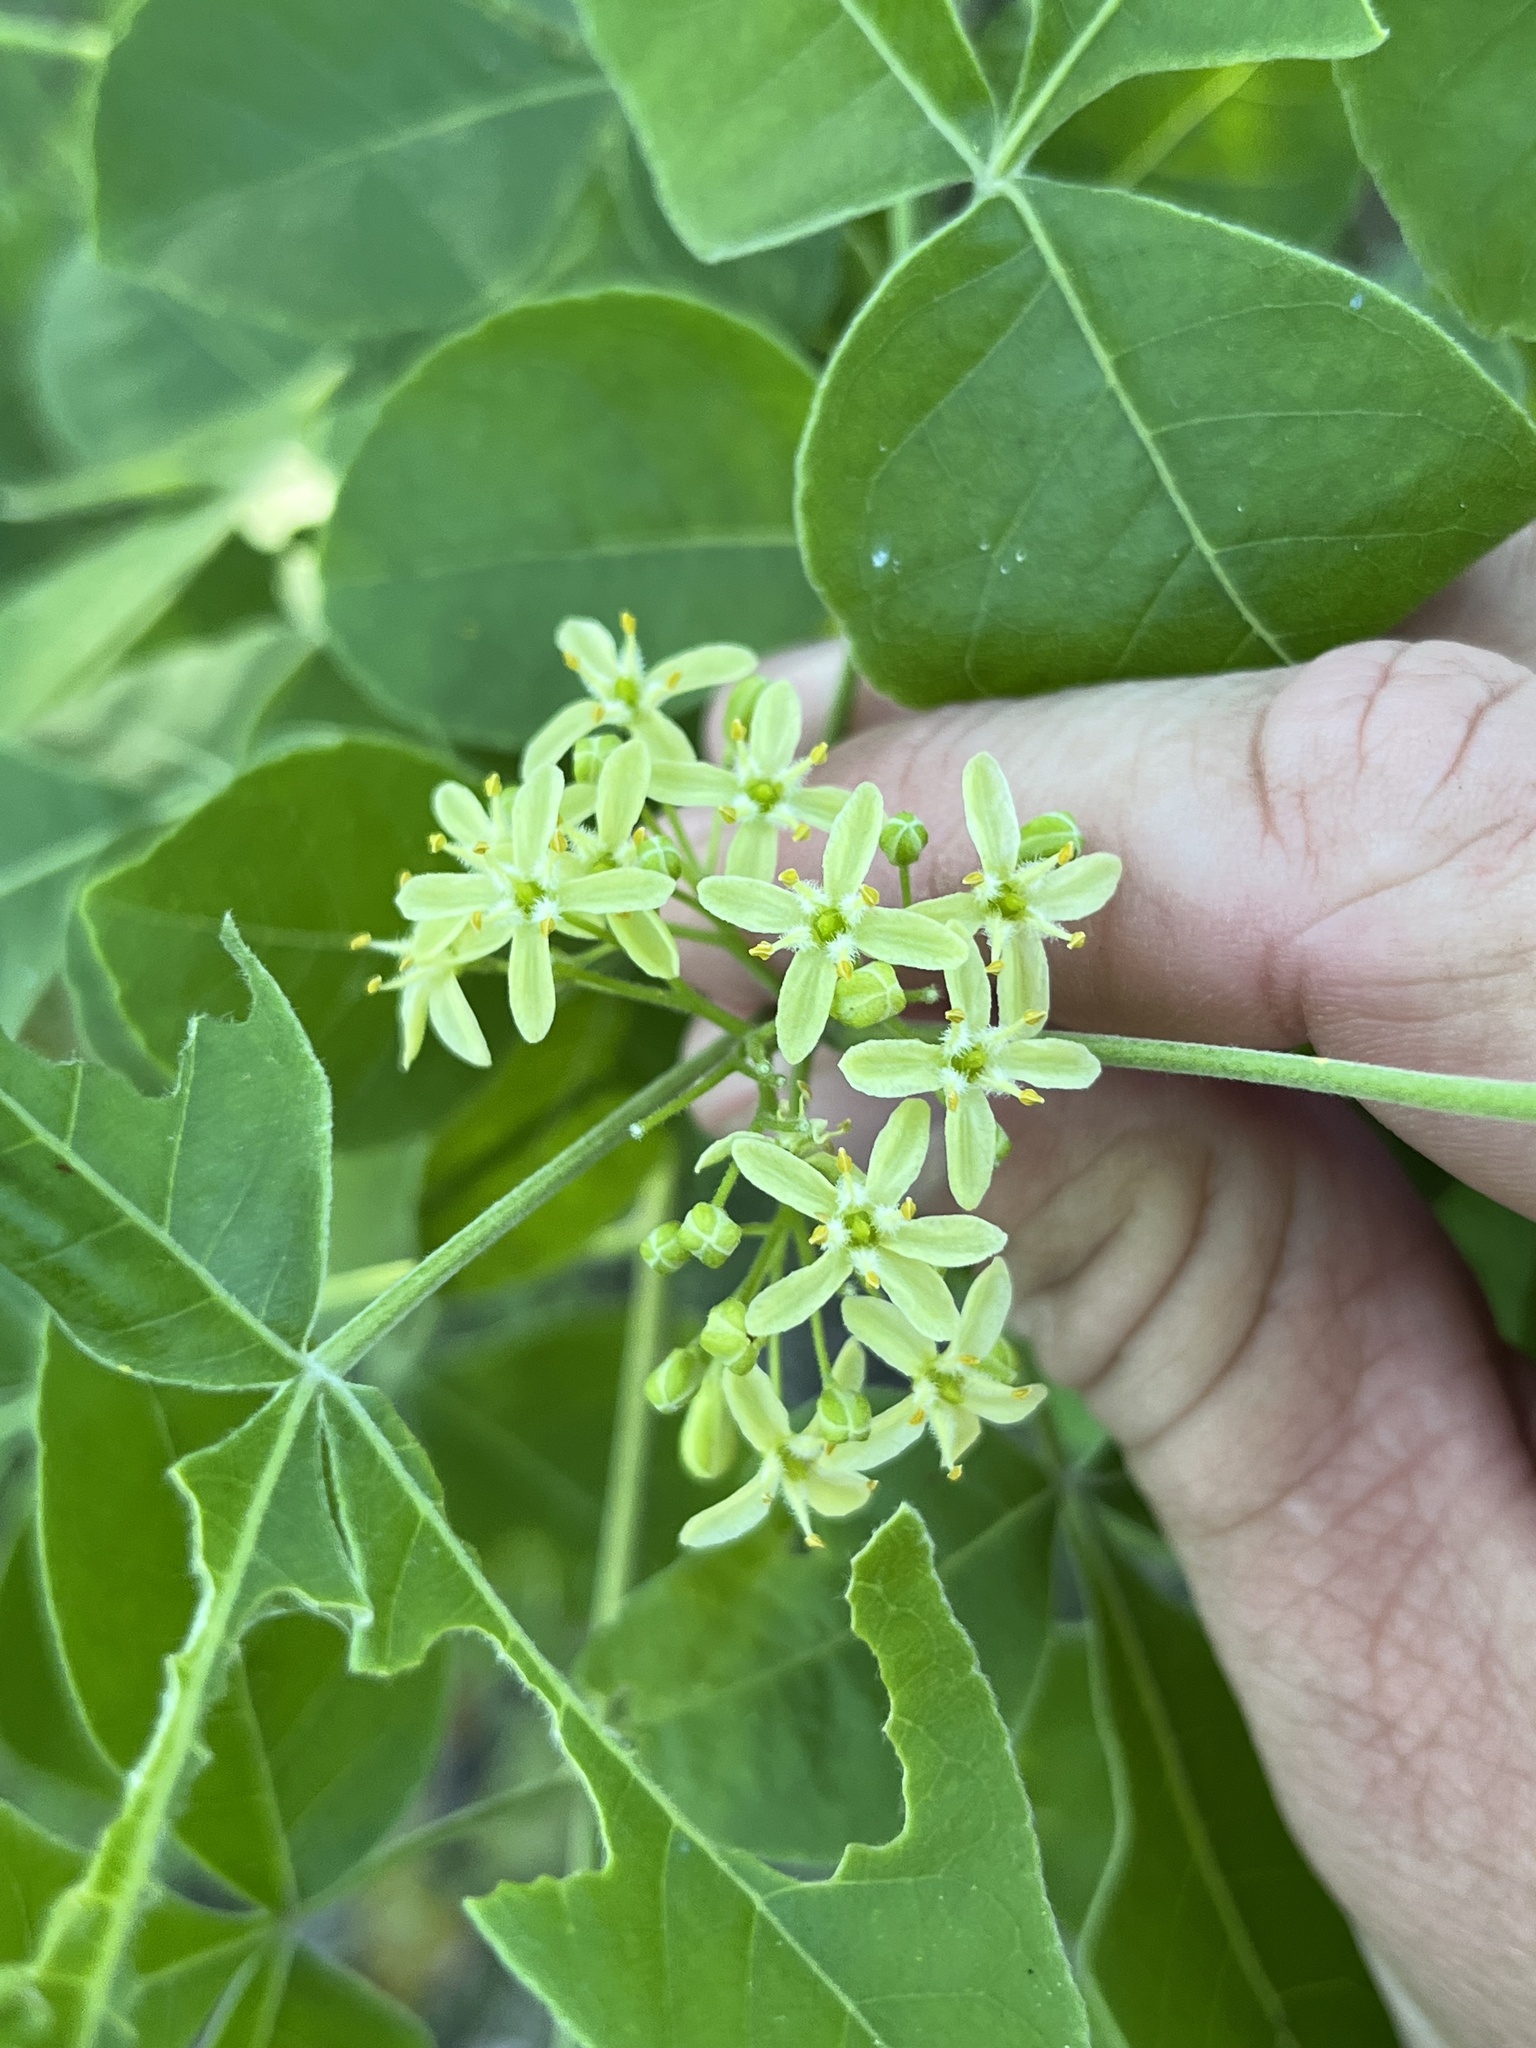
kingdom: Plantae
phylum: Tracheophyta
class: Magnoliopsida
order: Sapindales
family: Rutaceae
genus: Ptelea
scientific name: Ptelea trifoliata
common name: Common hop-tree
